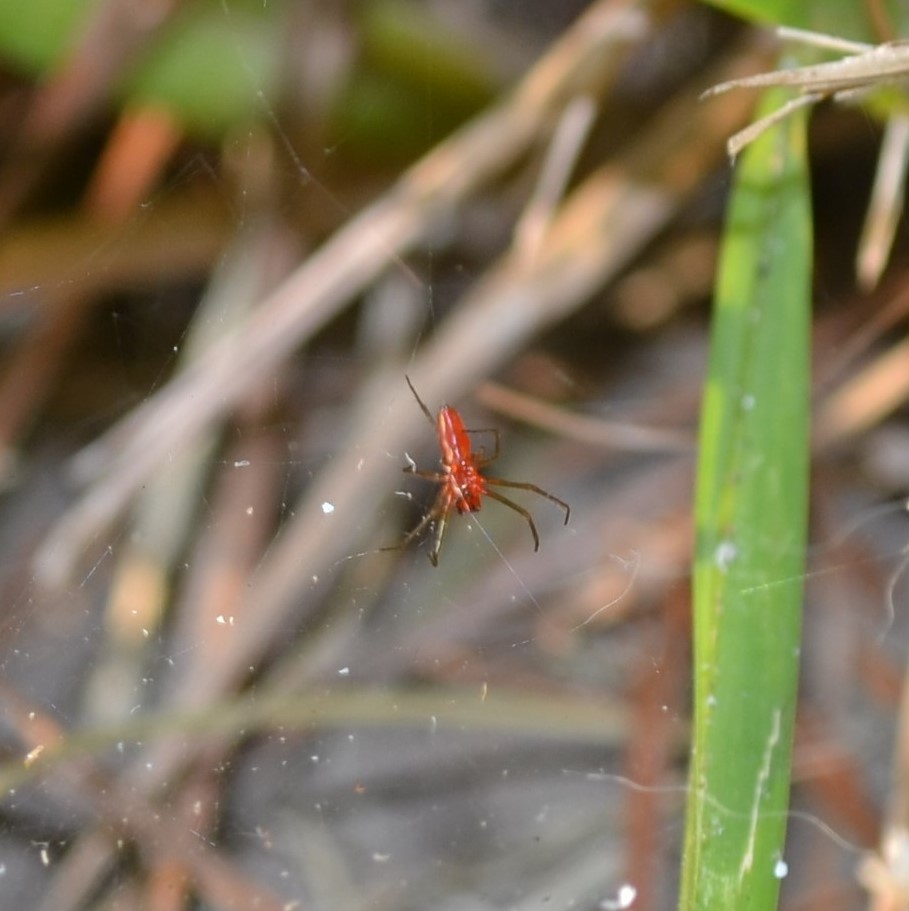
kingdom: Animalia
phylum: Arthropoda
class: Arachnida
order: Araneae
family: Linyphiidae
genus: Florinda
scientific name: Florinda coccinea
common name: Black-tailed red sheetweaver
